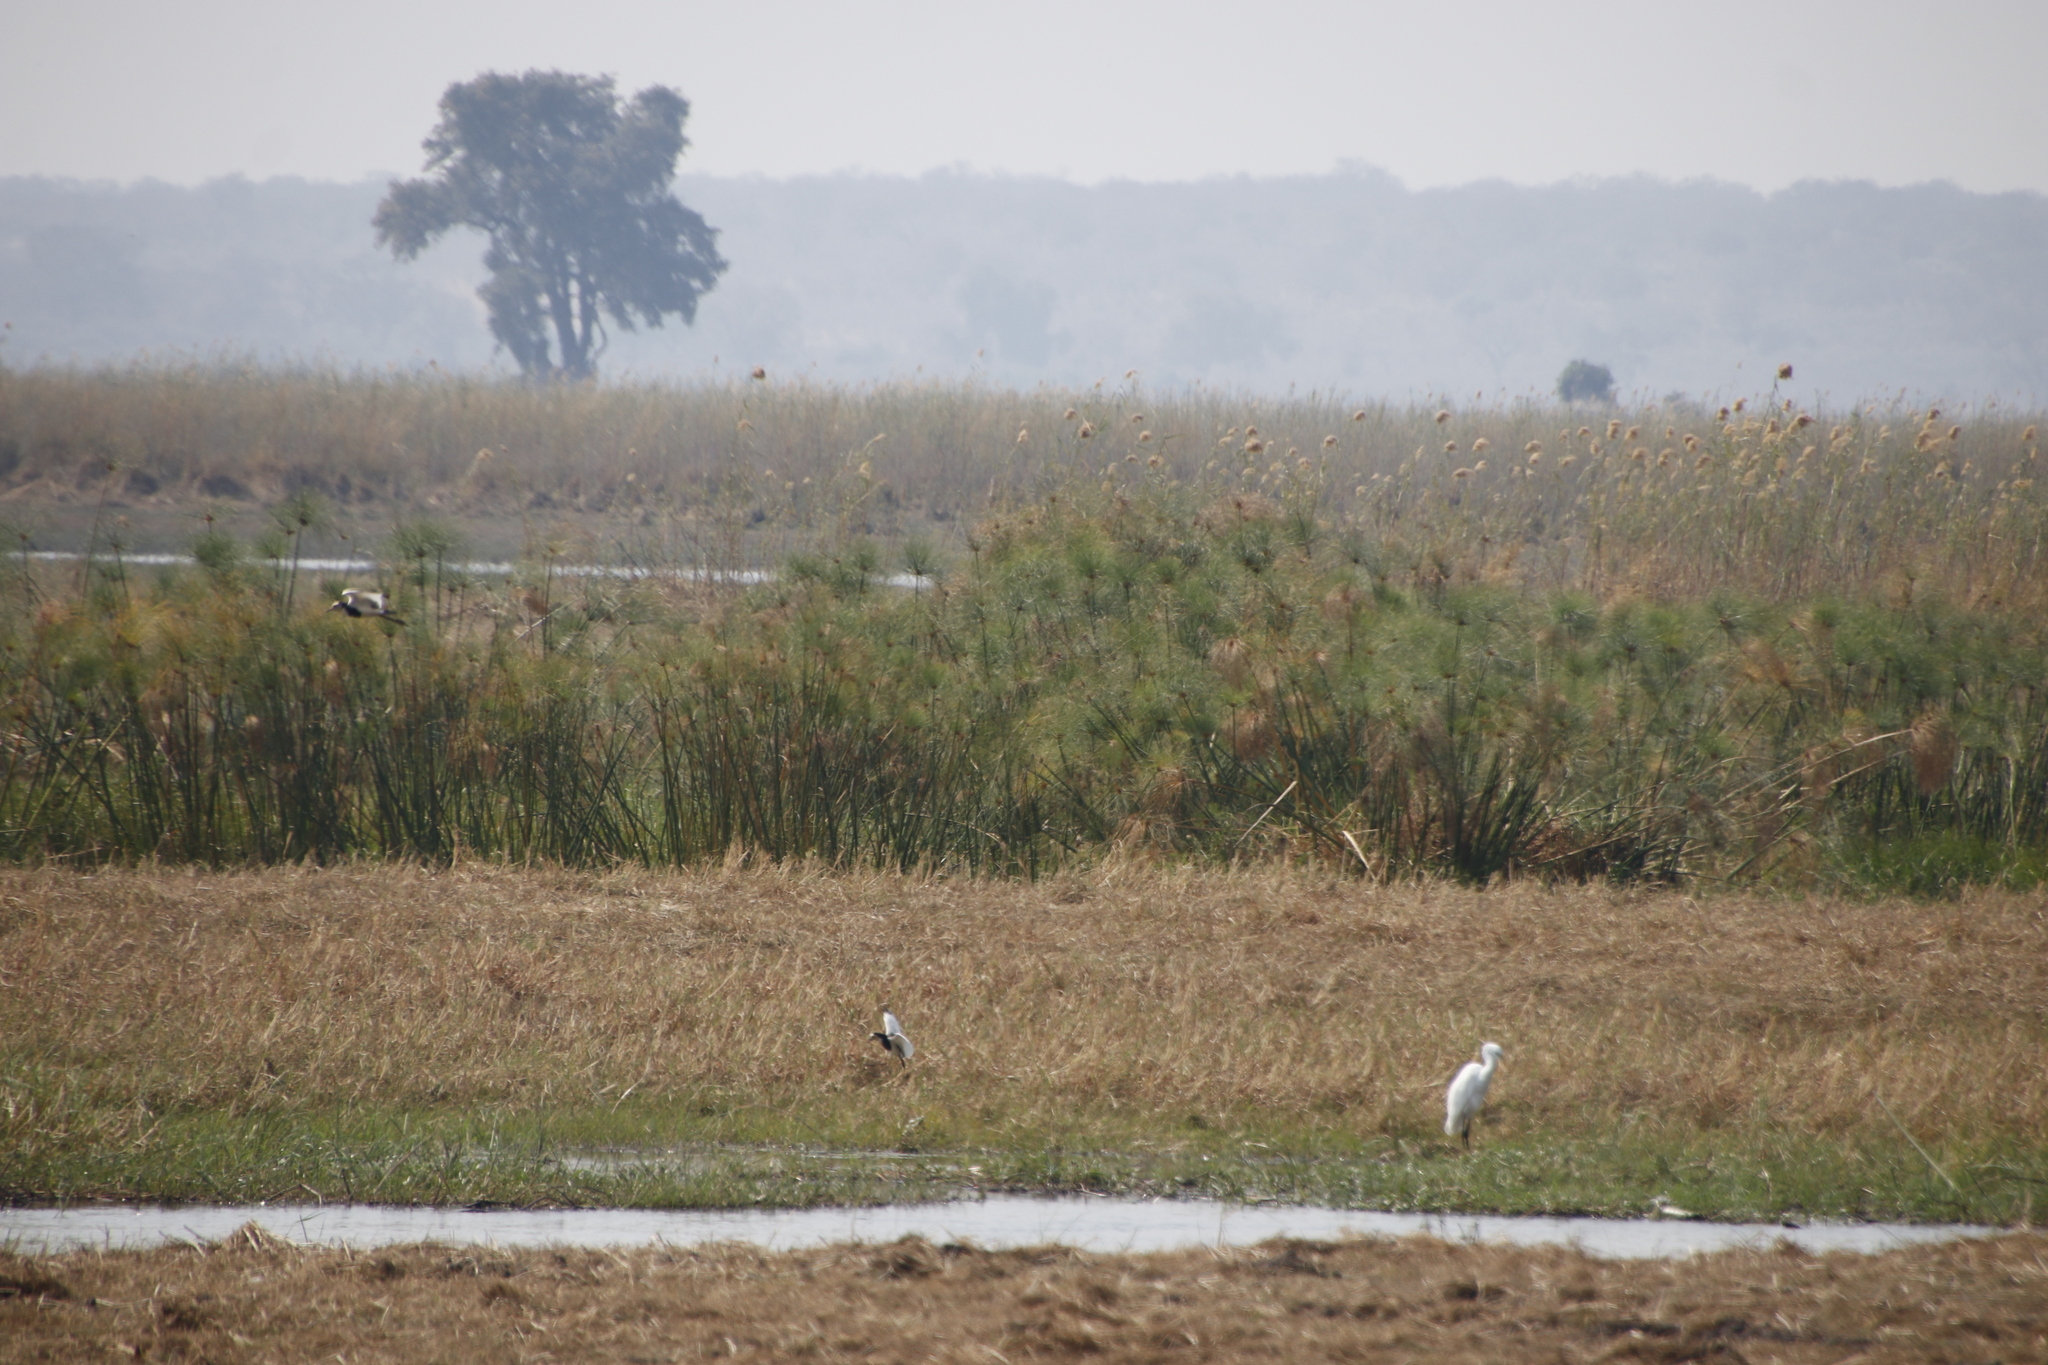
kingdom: Plantae
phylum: Tracheophyta
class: Liliopsida
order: Poales
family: Poaceae
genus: Phragmites
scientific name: Phragmites australis
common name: Common reed
